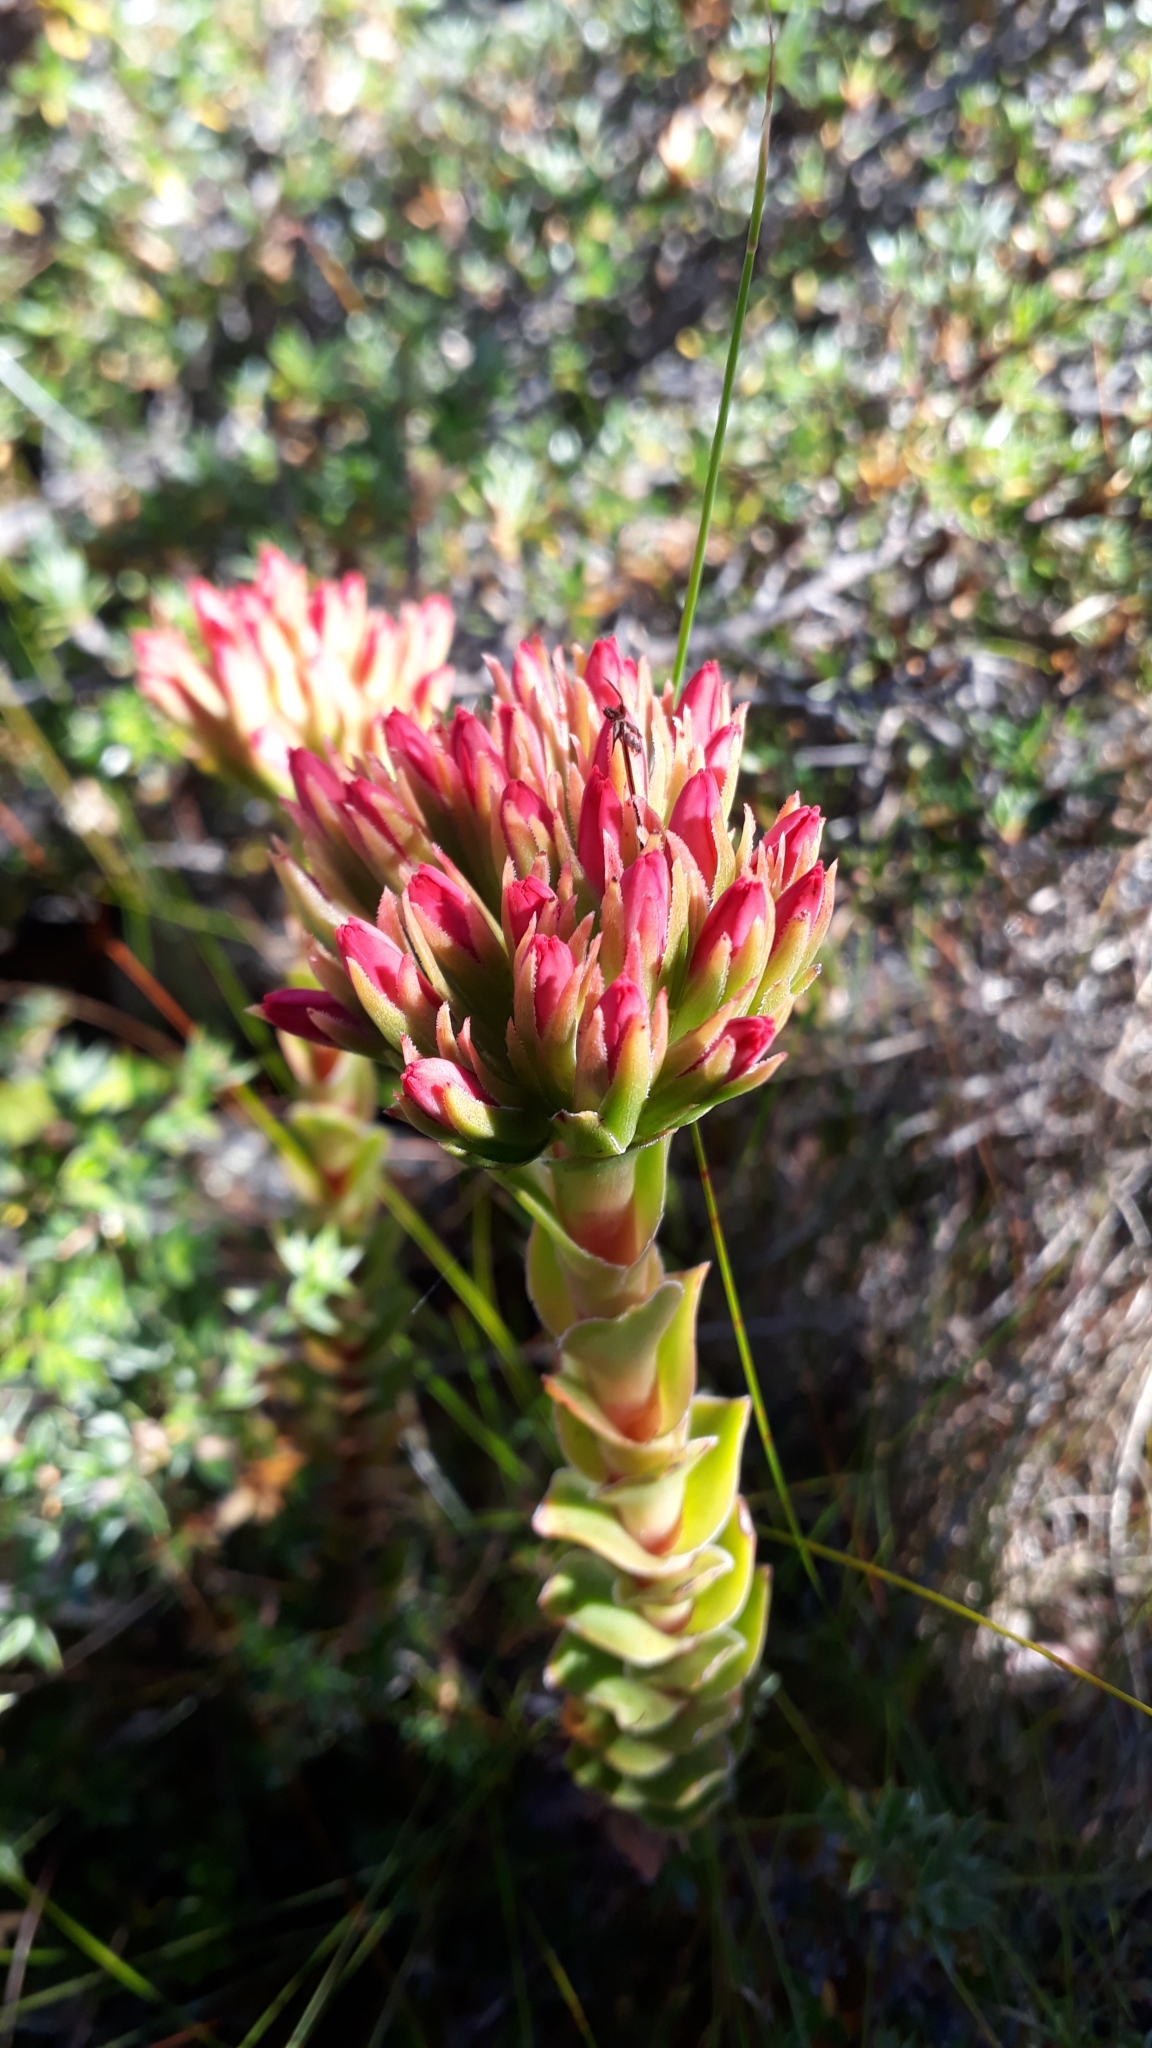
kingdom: Plantae
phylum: Tracheophyta
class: Magnoliopsida
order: Saxifragales
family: Crassulaceae
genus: Crassula
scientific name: Crassula coccinea
